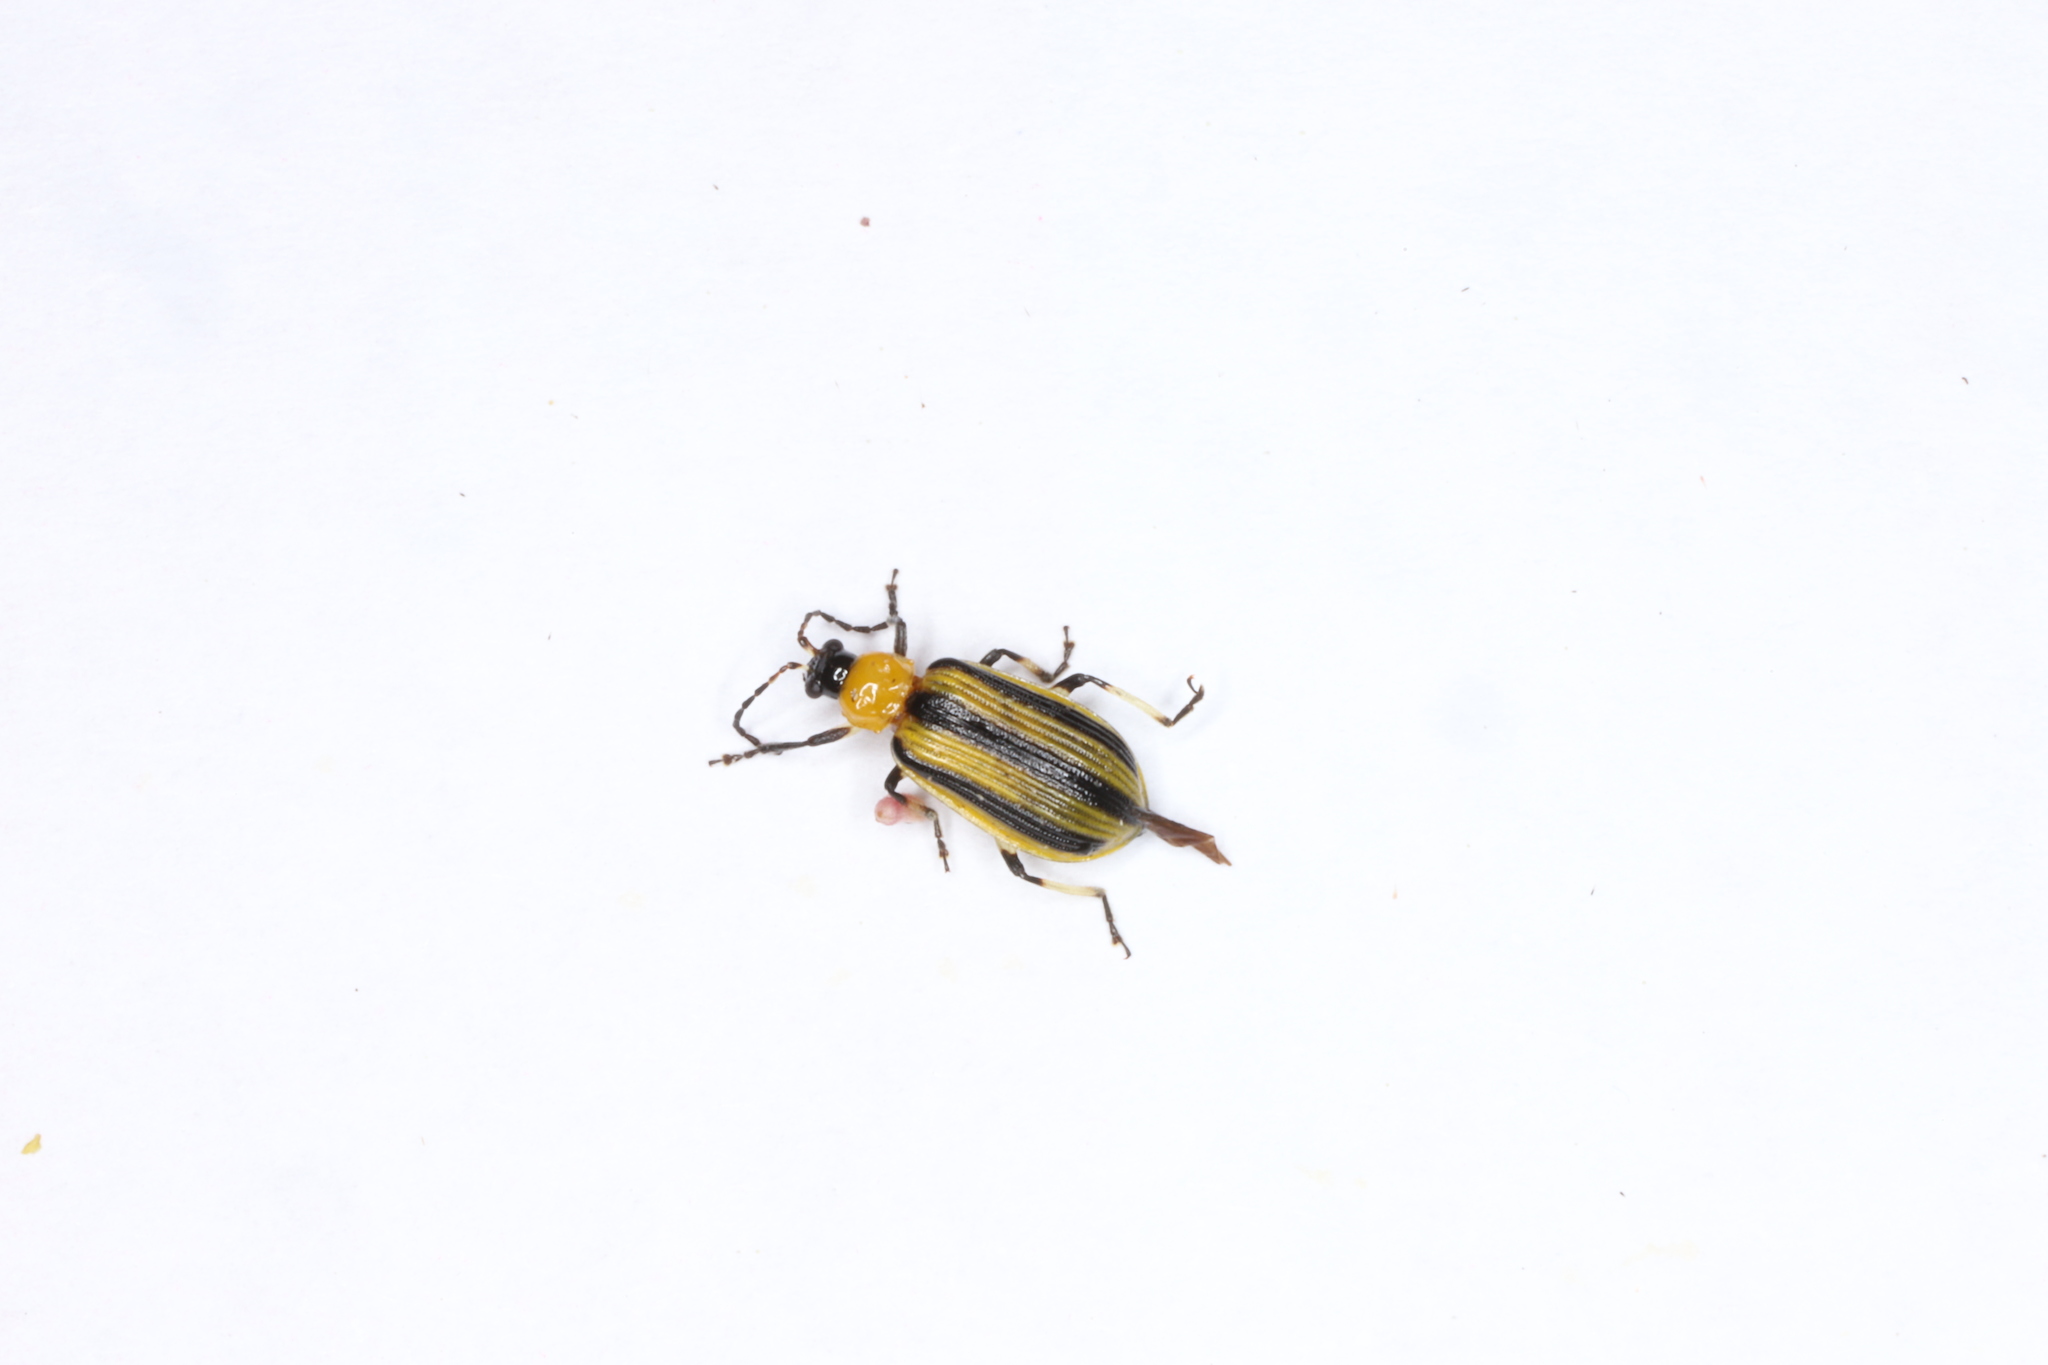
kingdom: Animalia
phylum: Arthropoda
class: Insecta
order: Coleoptera
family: Chrysomelidae
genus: Acalymma
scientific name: Acalymma vittatum
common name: Striped cucumber beetle
